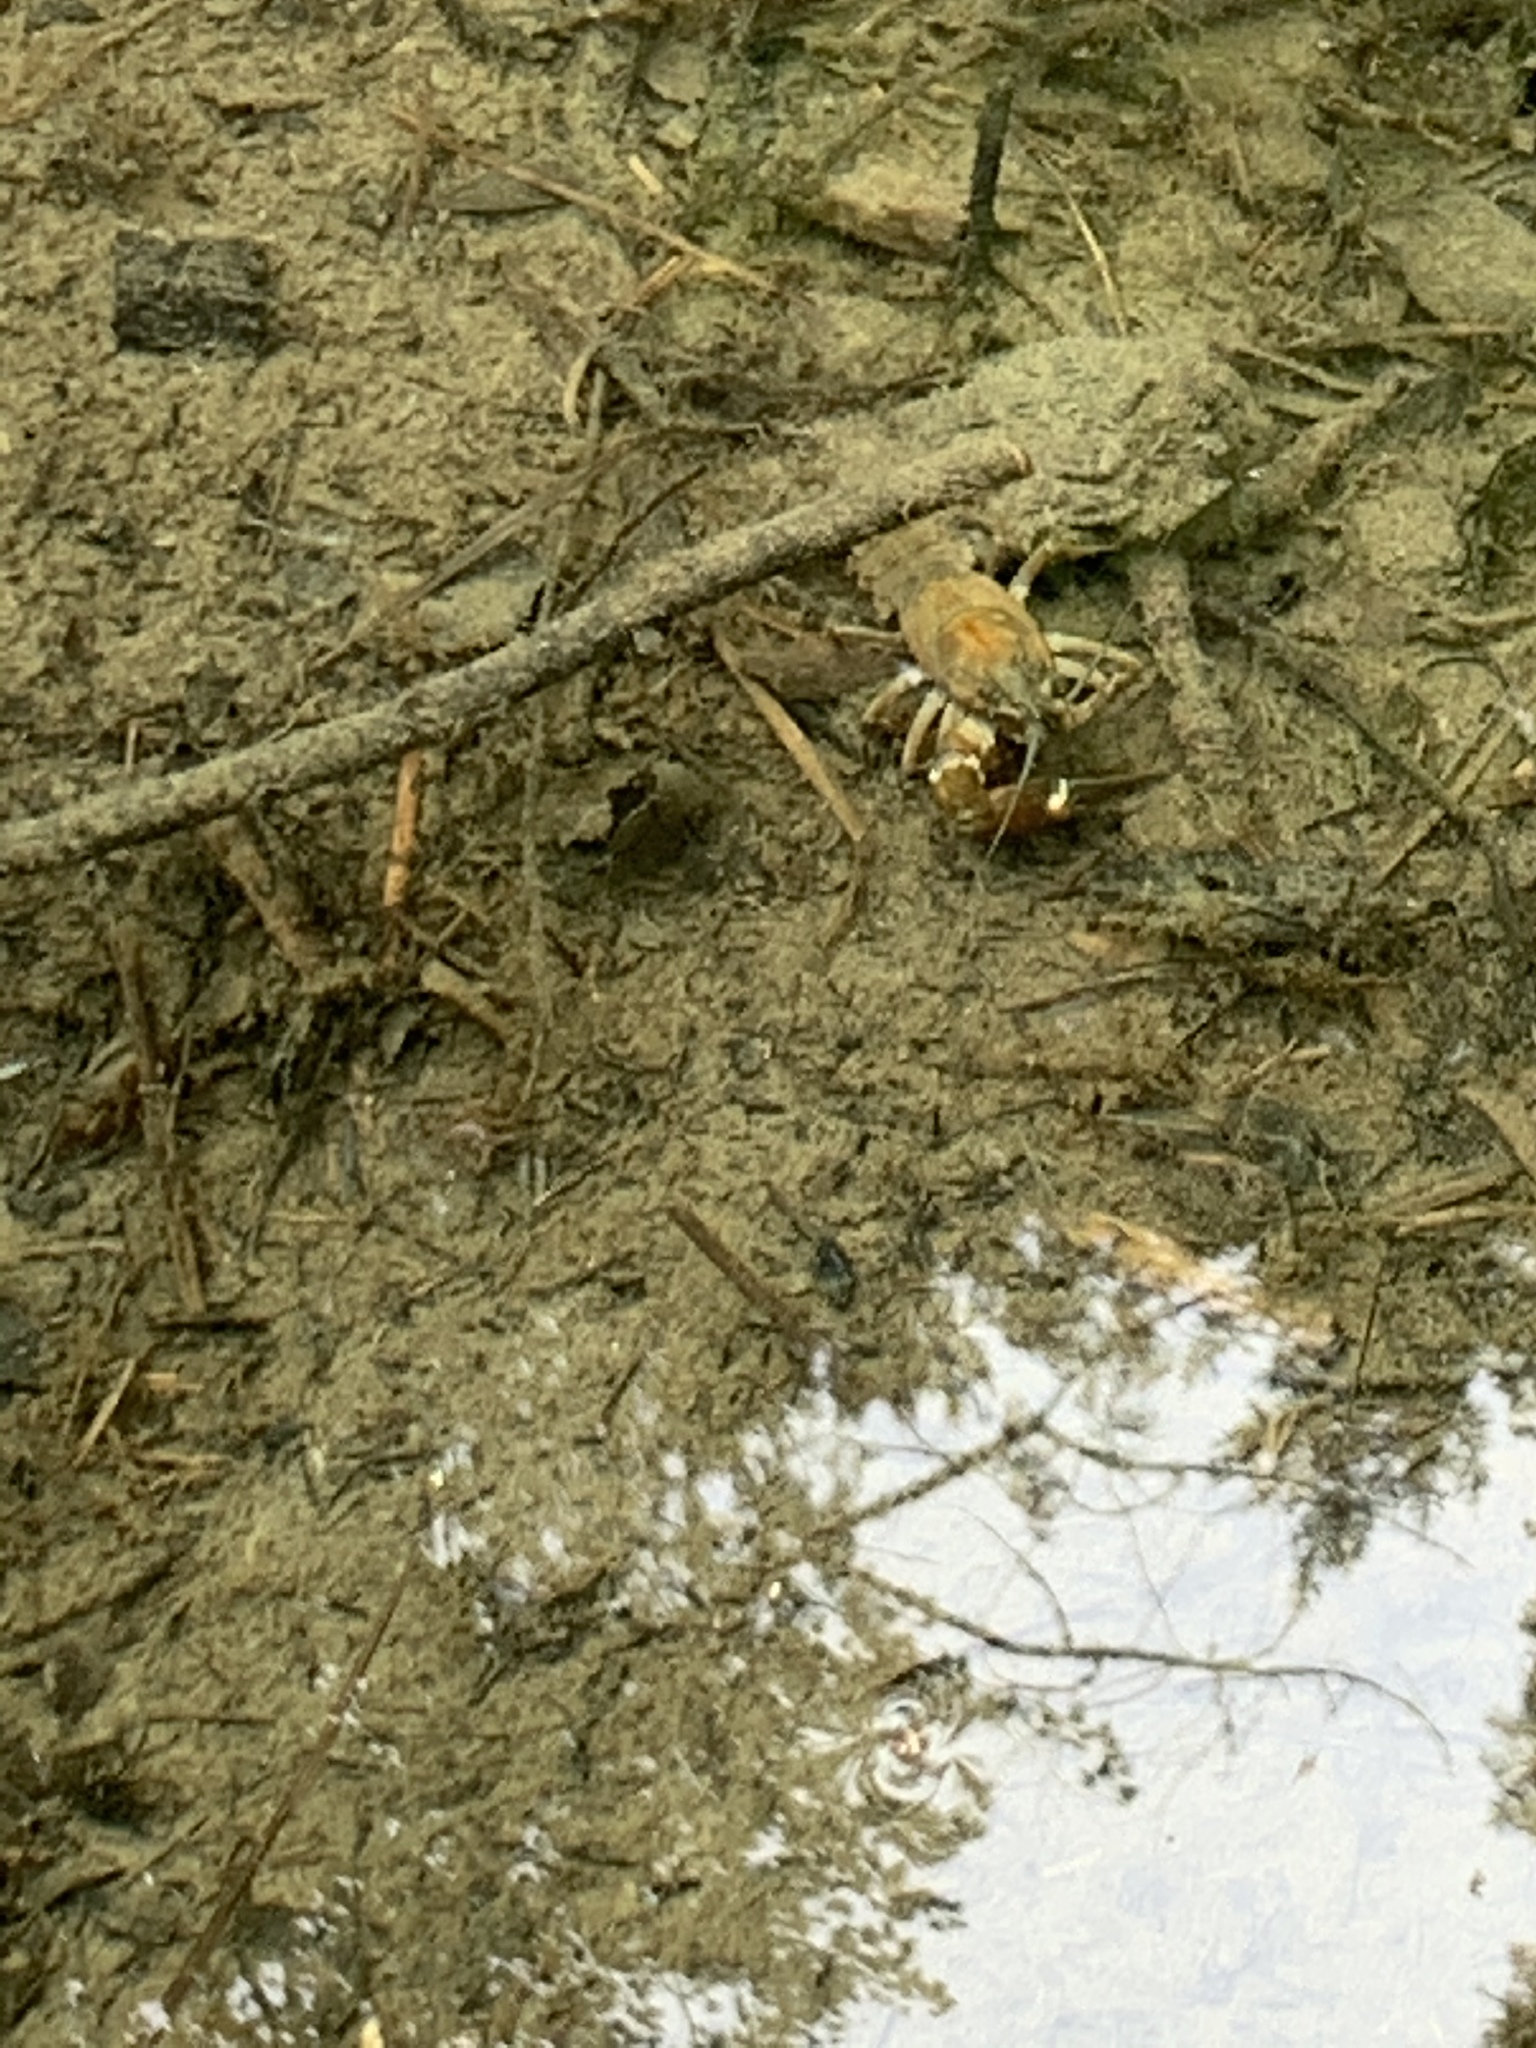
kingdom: Animalia
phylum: Arthropoda
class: Malacostraca
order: Decapoda
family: Astacidae
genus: Pacifastacus
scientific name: Pacifastacus leniusculus
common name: Signal crayfish
